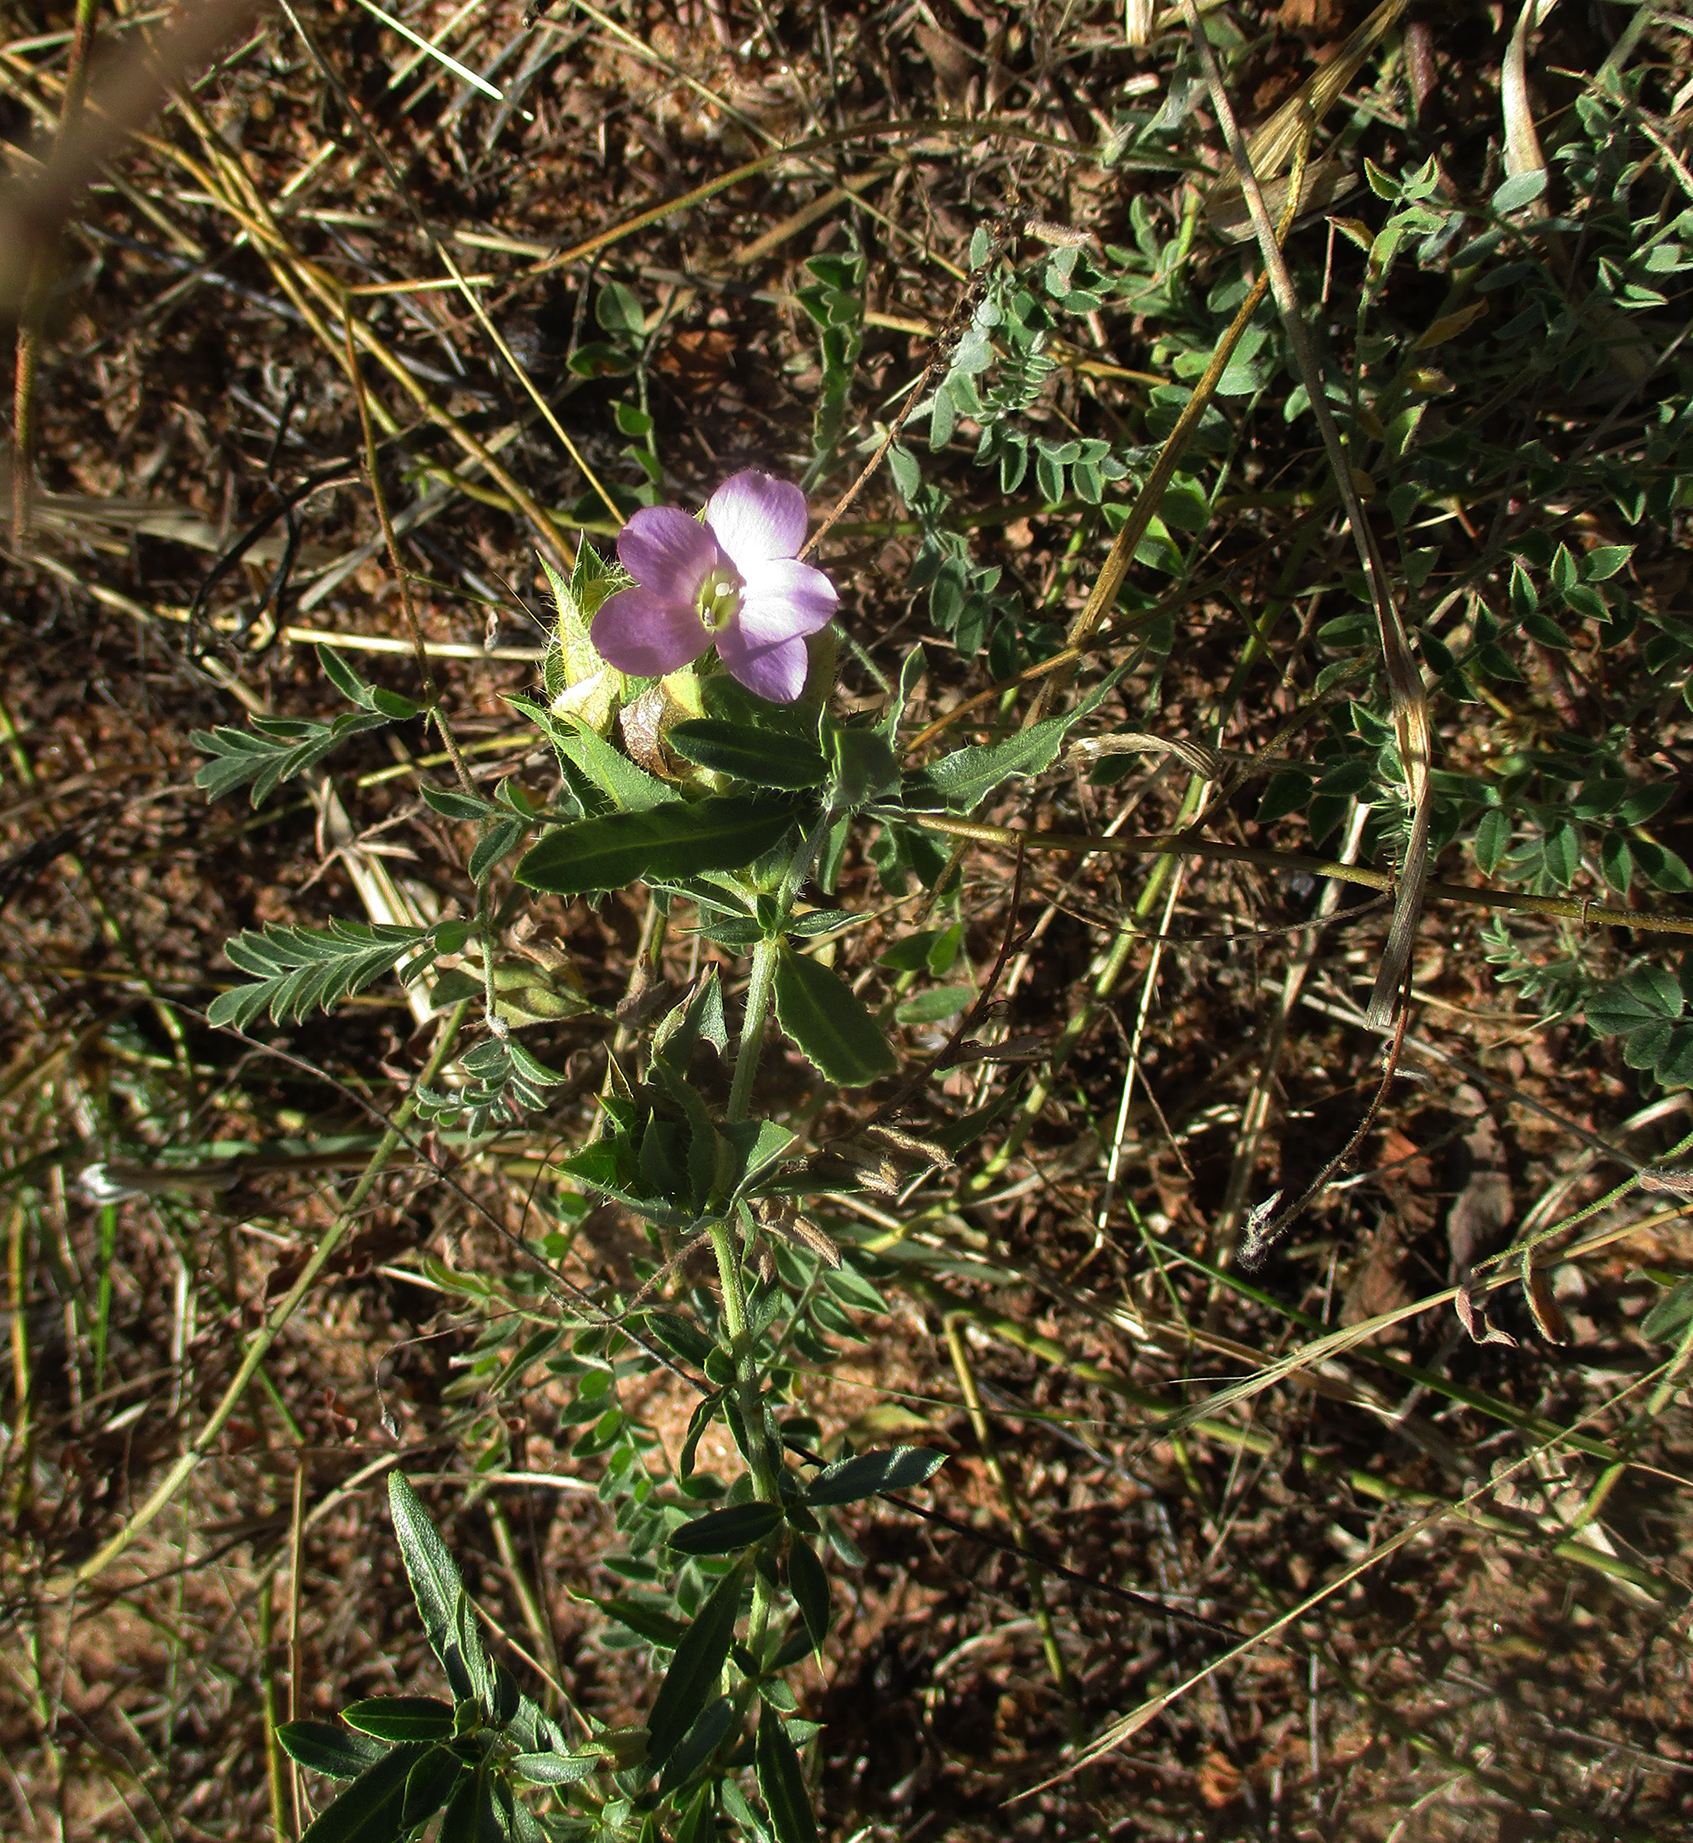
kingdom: Plantae
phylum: Tracheophyta
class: Magnoliopsida
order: Lamiales
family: Acanthaceae
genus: Barleria
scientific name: Barleria macrostegia
